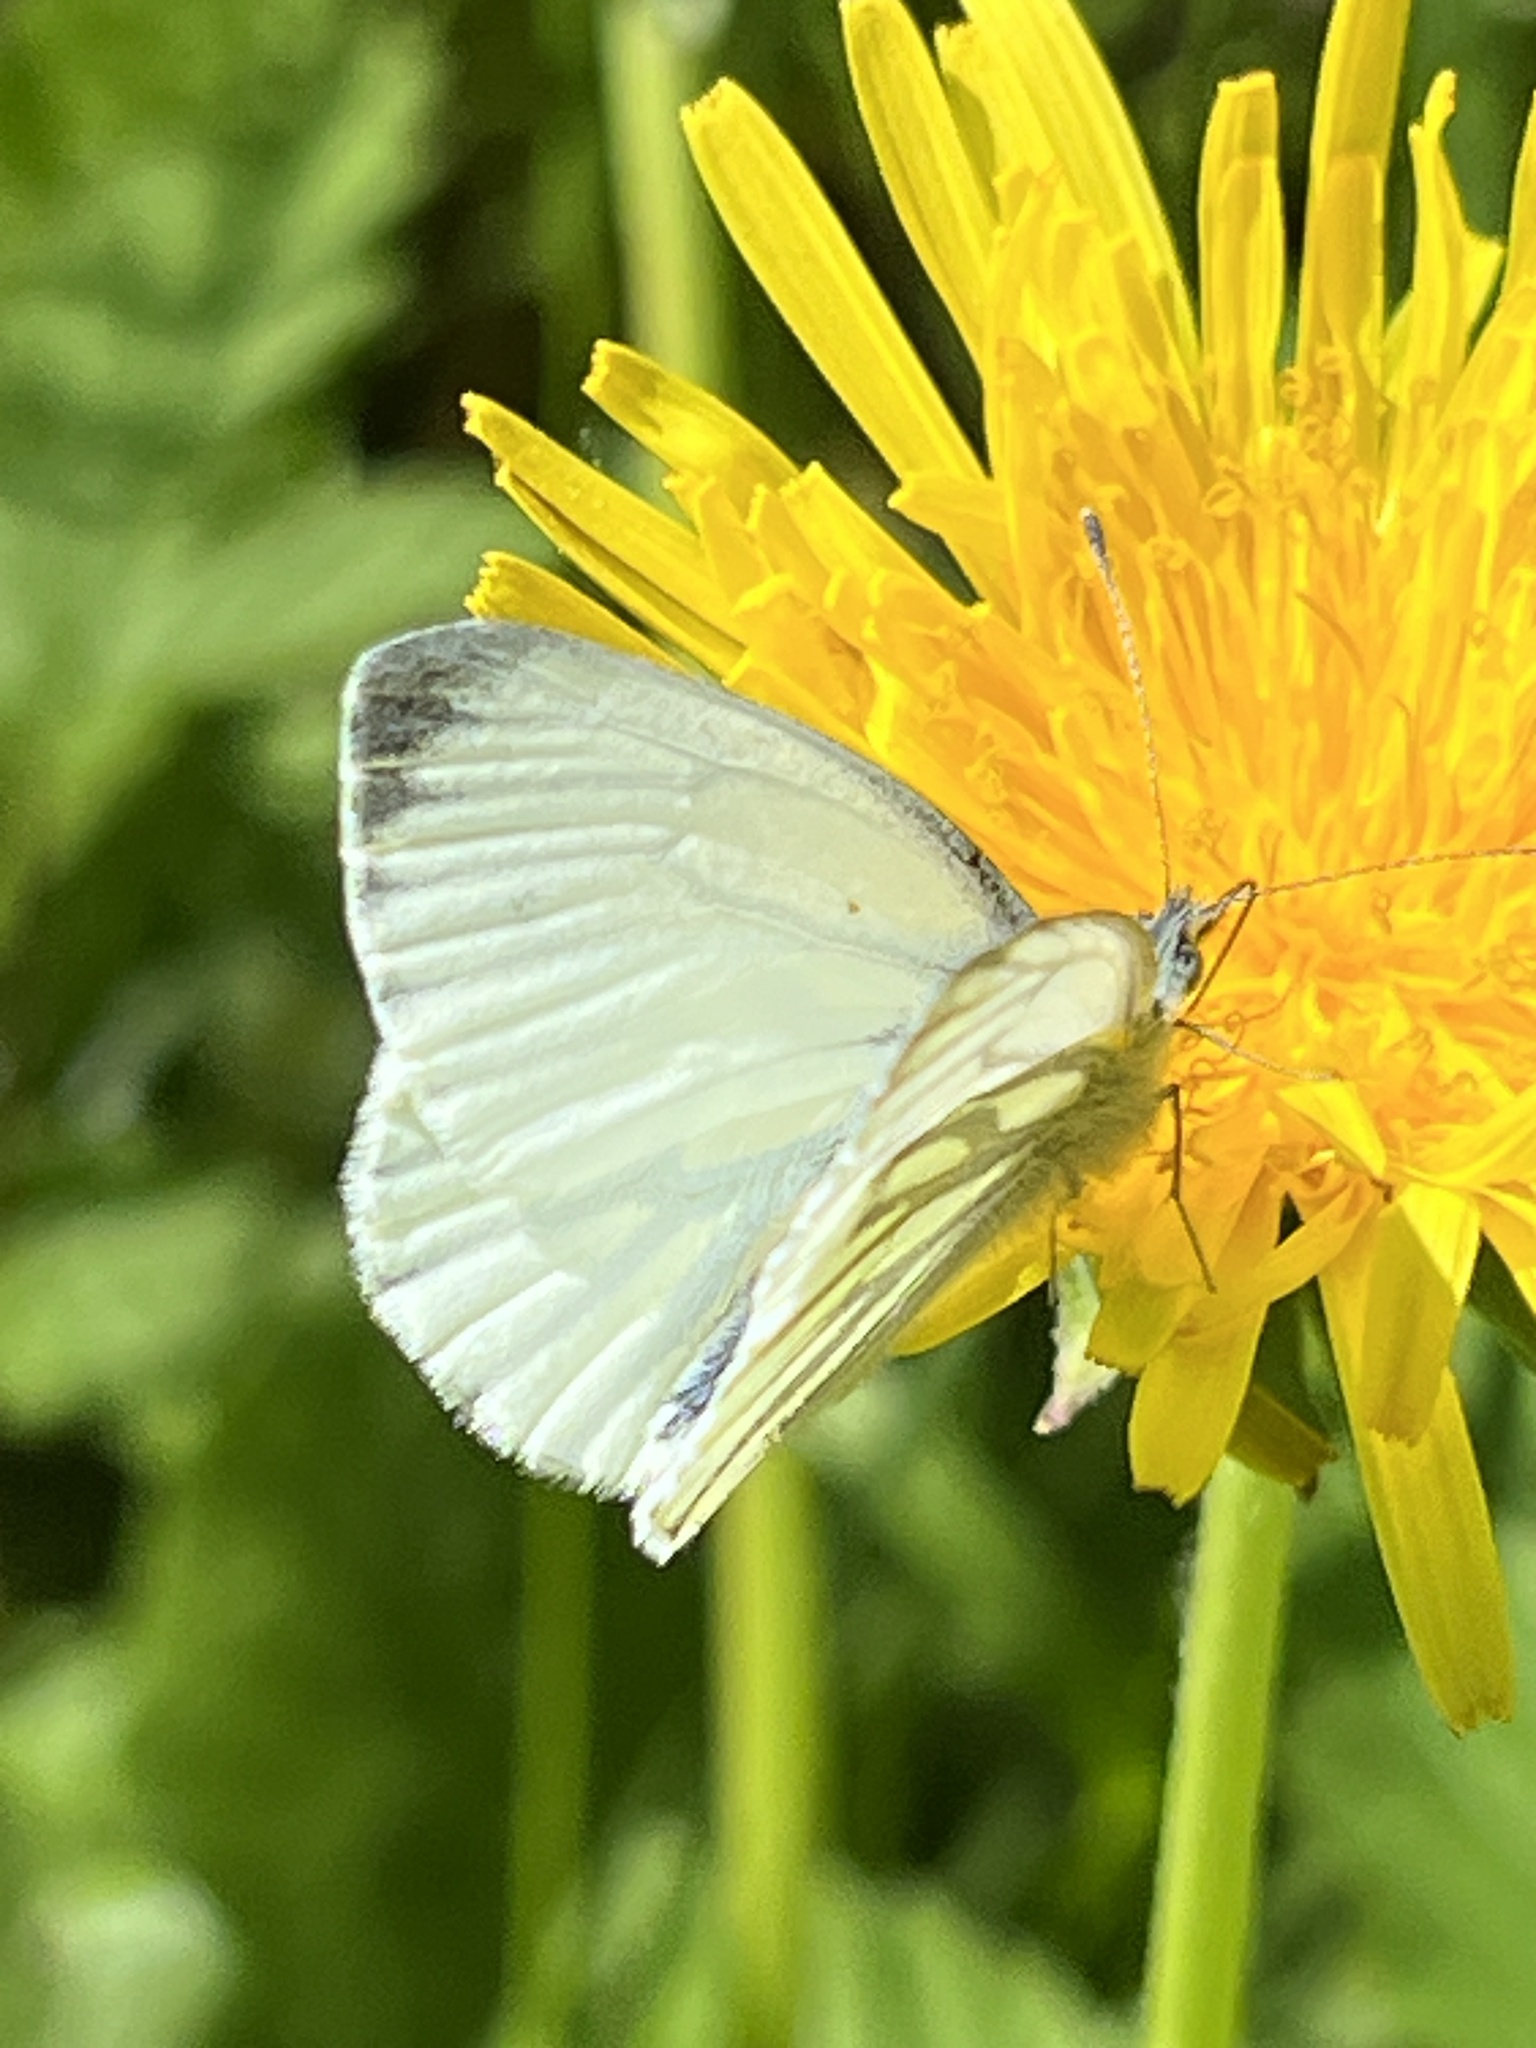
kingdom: Animalia
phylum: Arthropoda
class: Insecta
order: Lepidoptera
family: Pieridae
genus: Pieris
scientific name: Pieris napi
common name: Green-veined white
